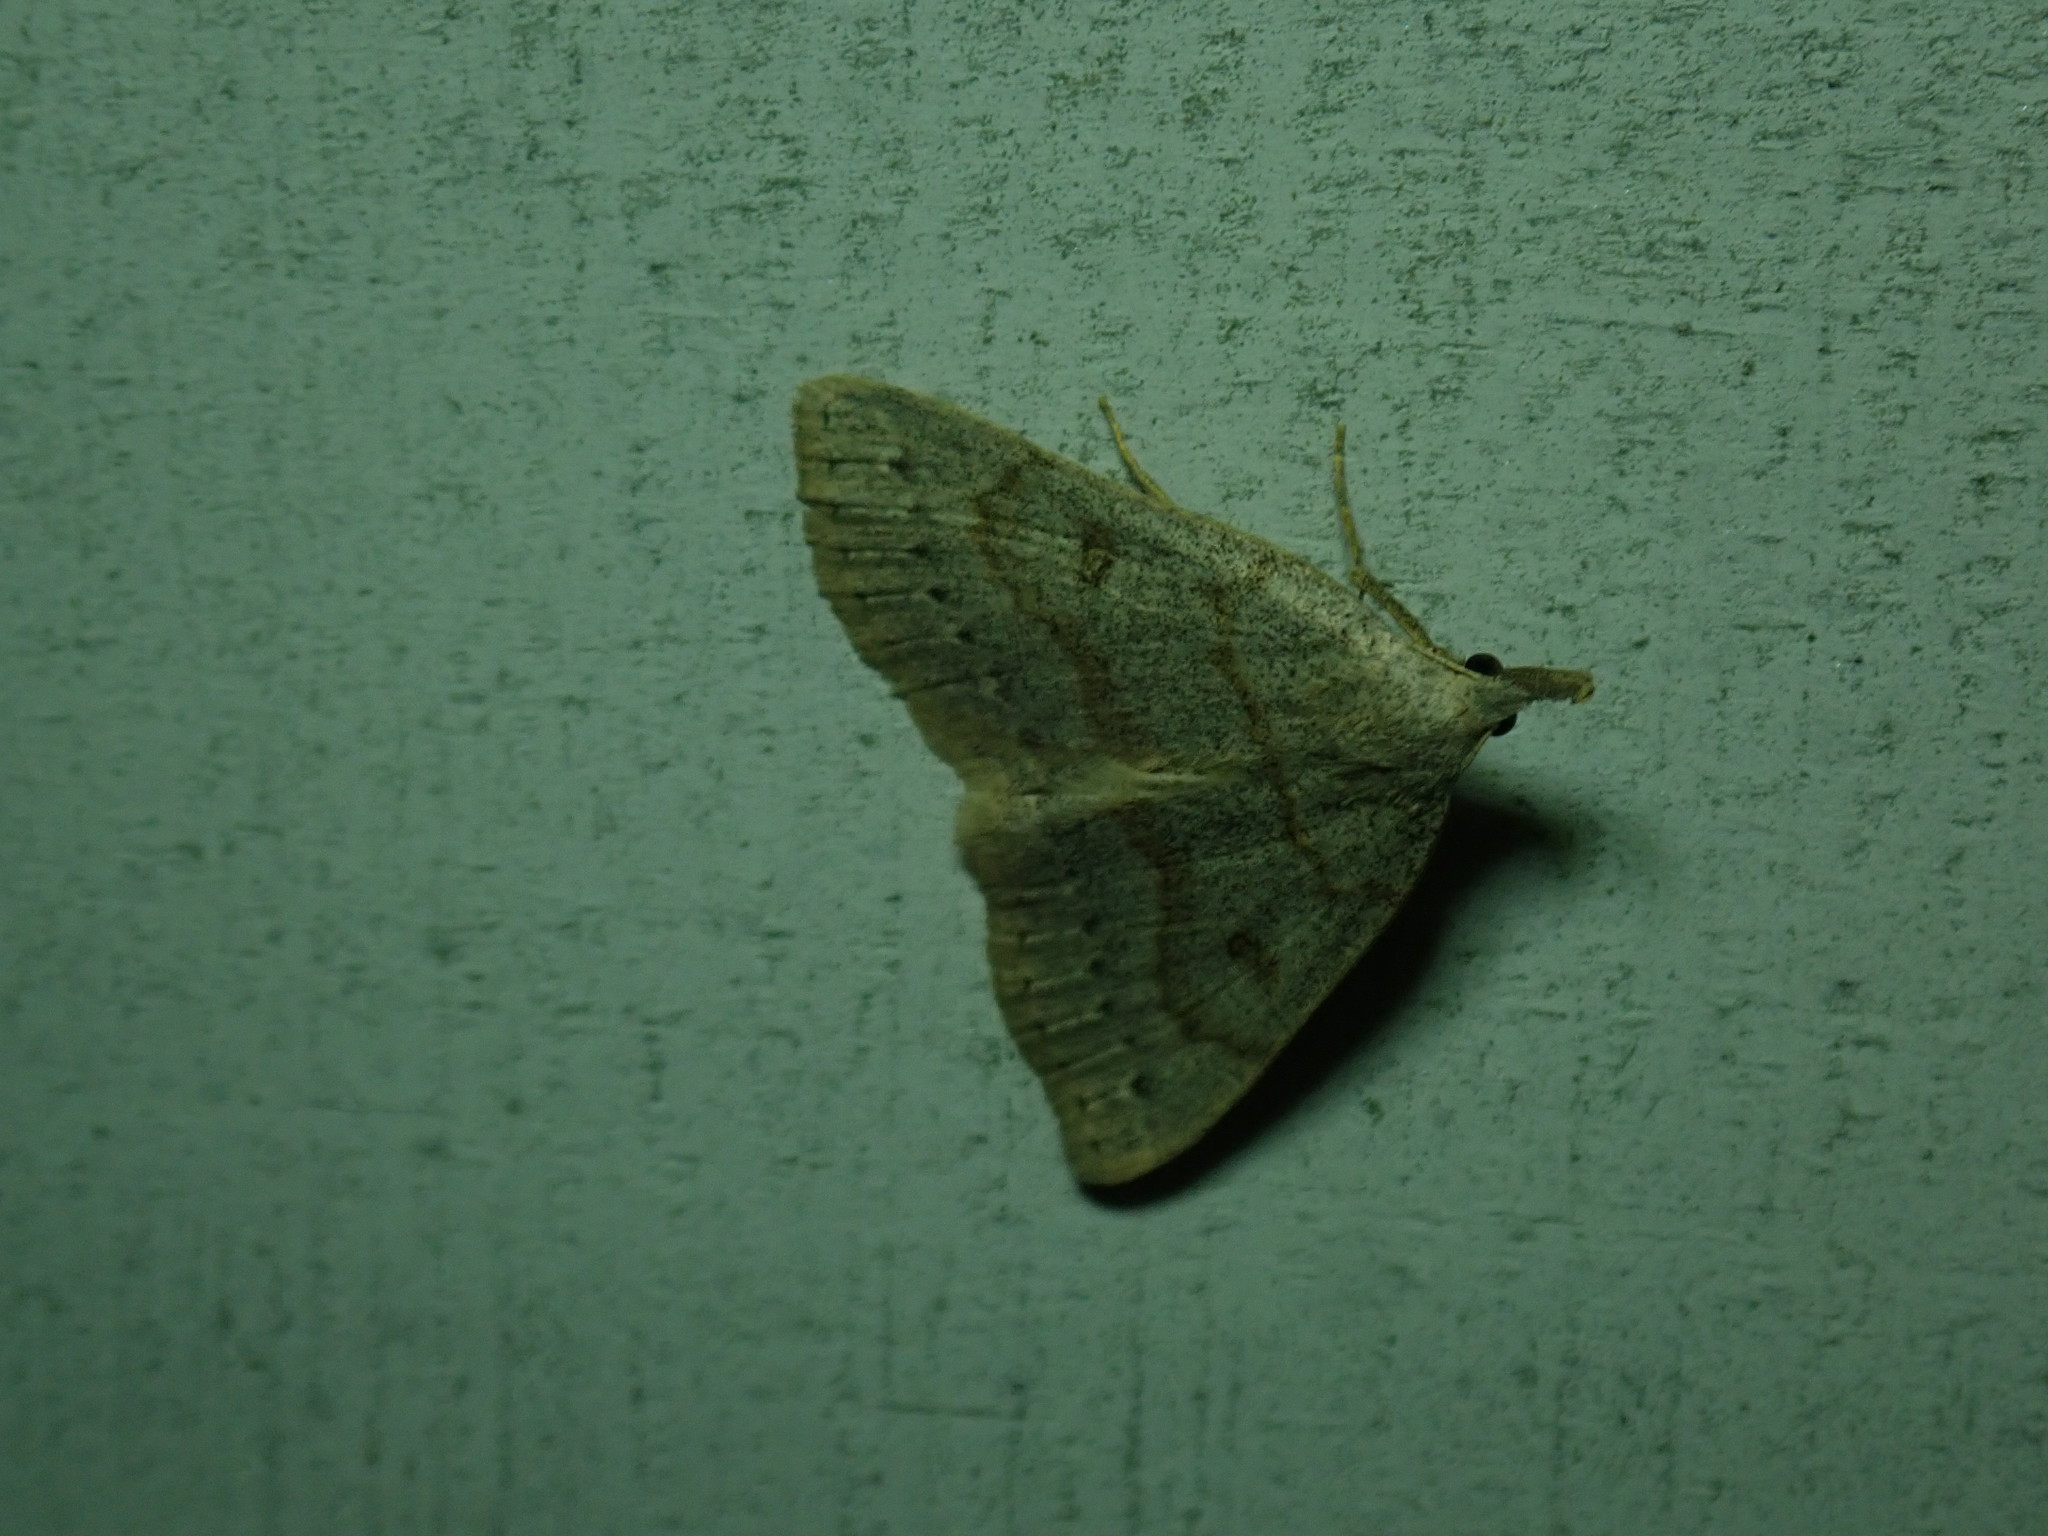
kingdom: Animalia
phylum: Arthropoda
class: Insecta
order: Lepidoptera
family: Erebidae
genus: Macrochilo
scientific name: Macrochilo morbidalis
